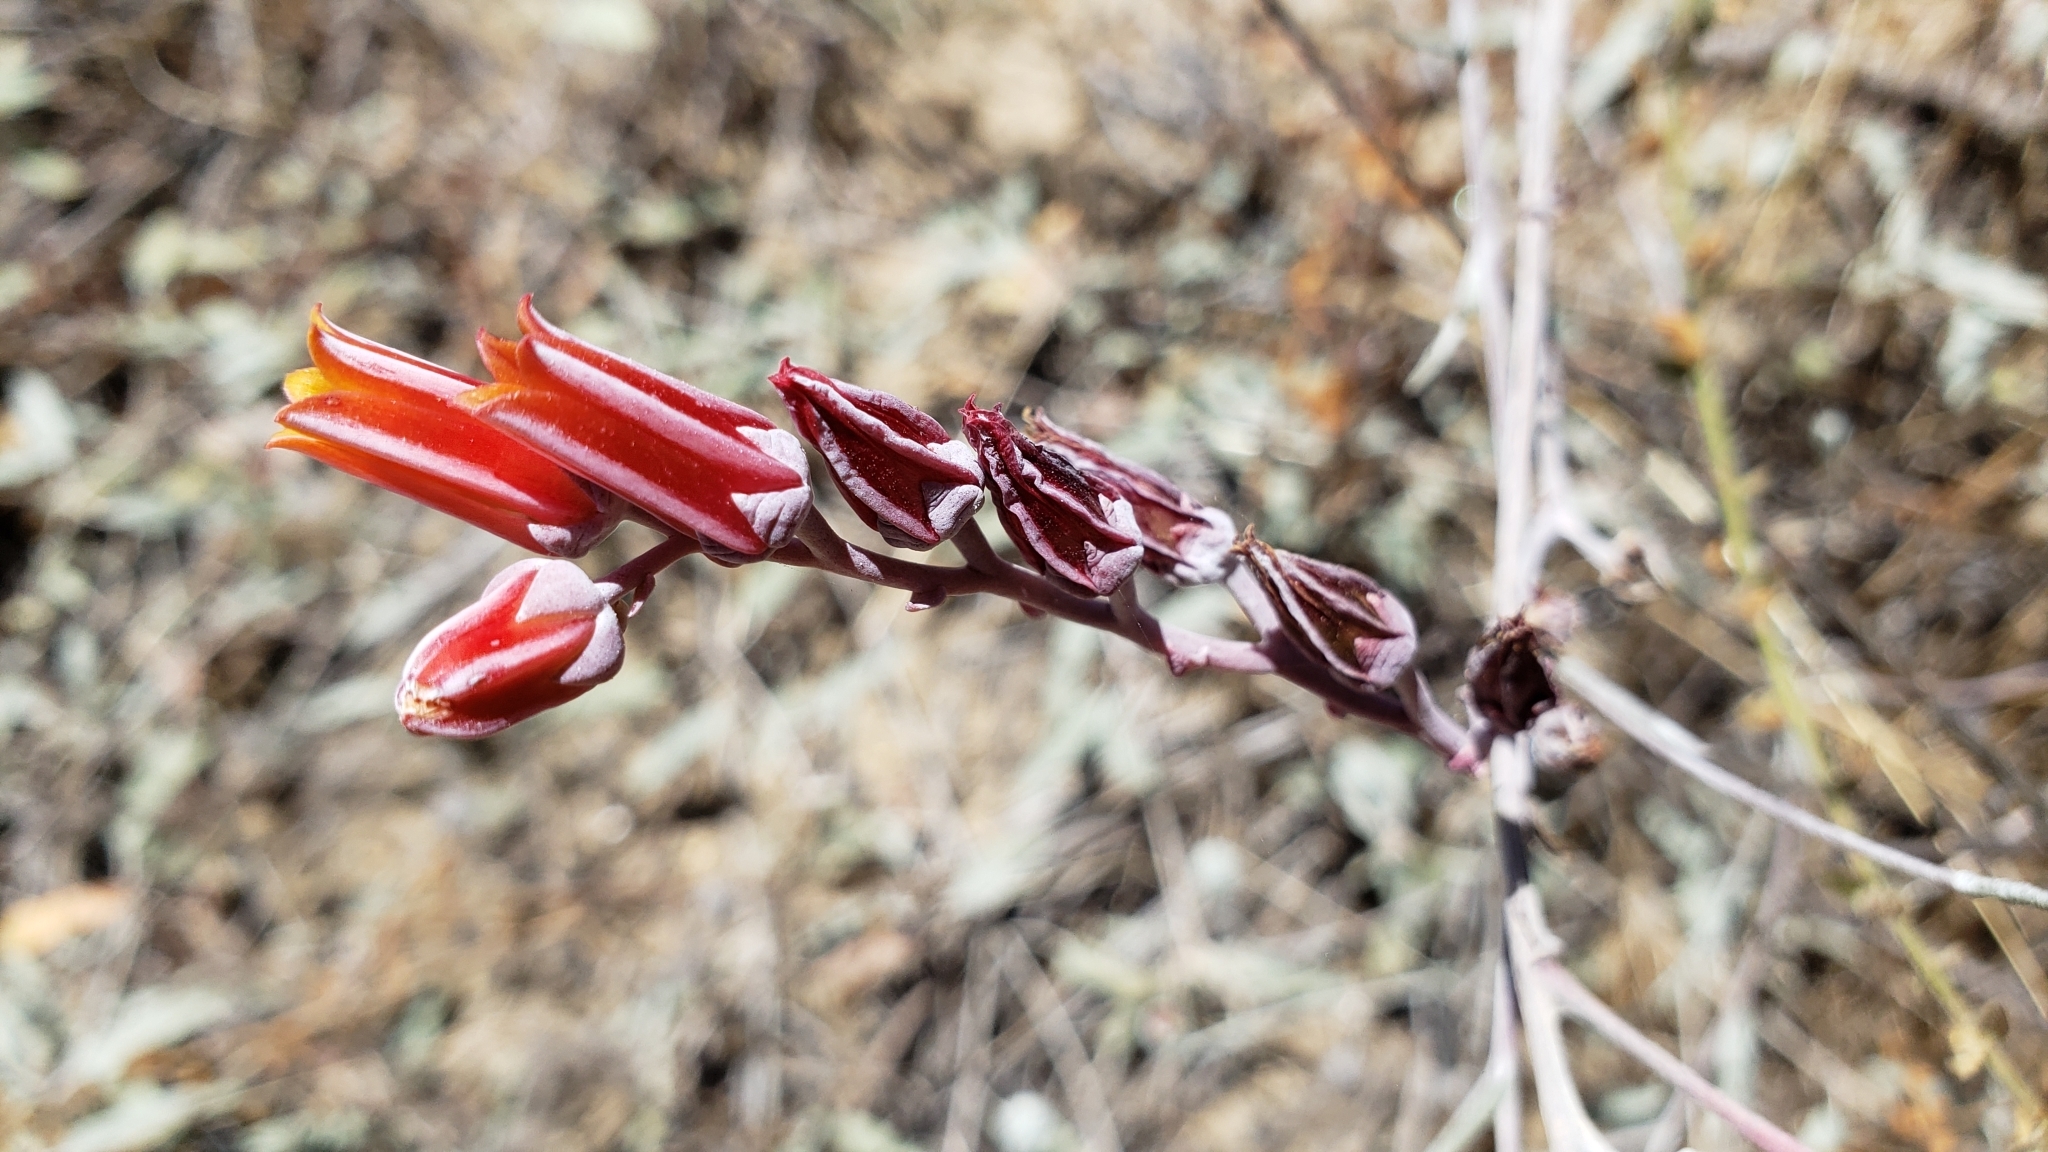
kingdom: Plantae
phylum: Tracheophyta
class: Magnoliopsida
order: Saxifragales
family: Crassulaceae
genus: Dudleya
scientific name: Dudleya lanceolata
